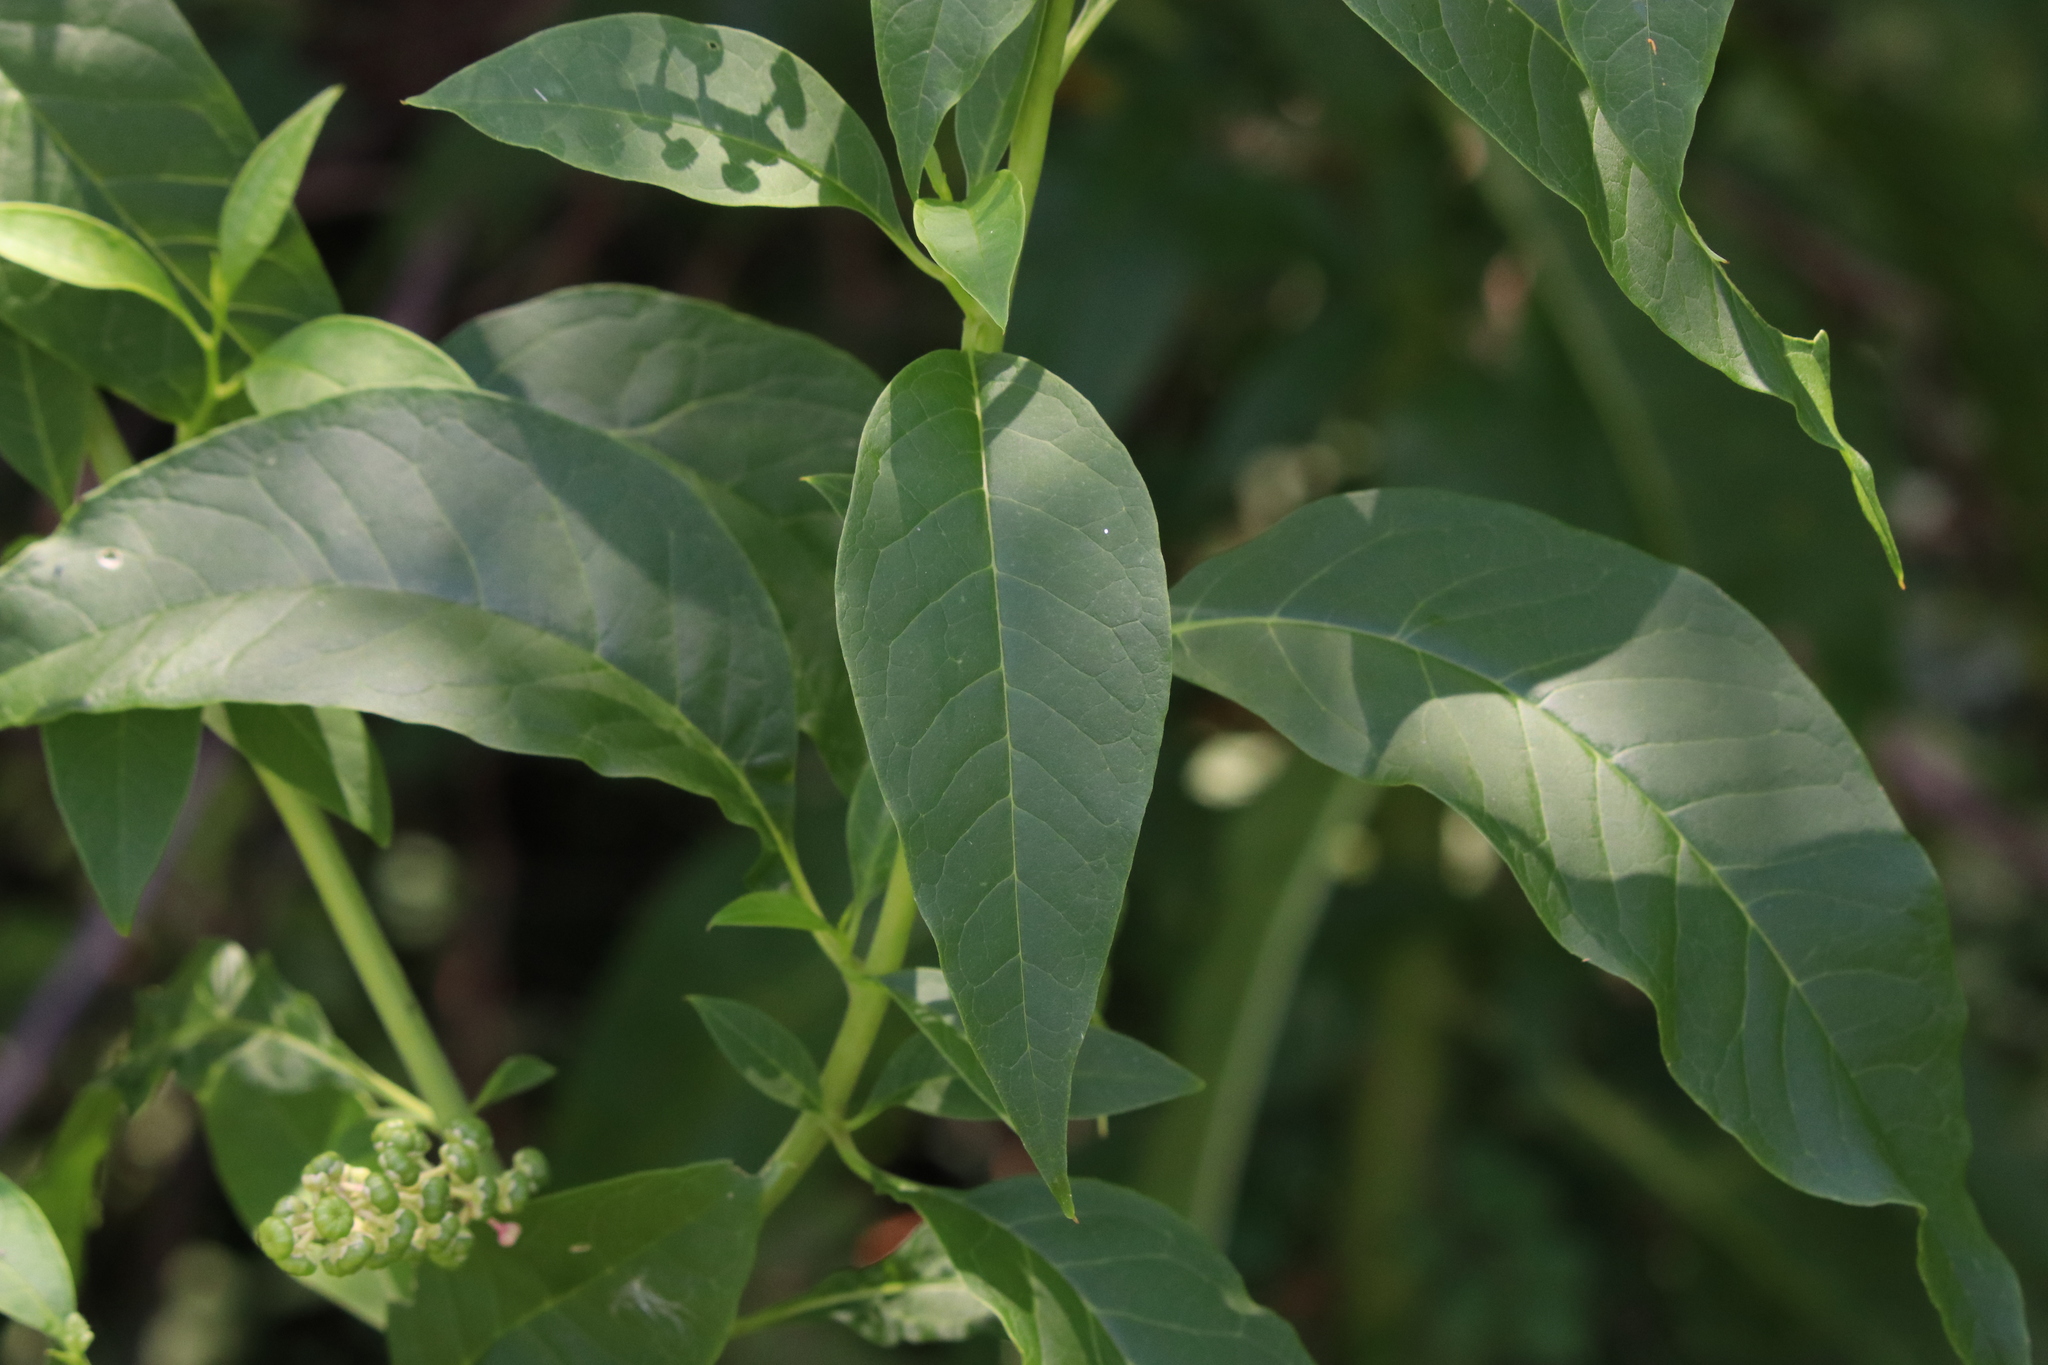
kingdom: Plantae
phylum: Tracheophyta
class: Magnoliopsida
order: Caryophyllales
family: Phytolaccaceae
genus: Phytolacca
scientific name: Phytolacca americana
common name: American pokeweed
